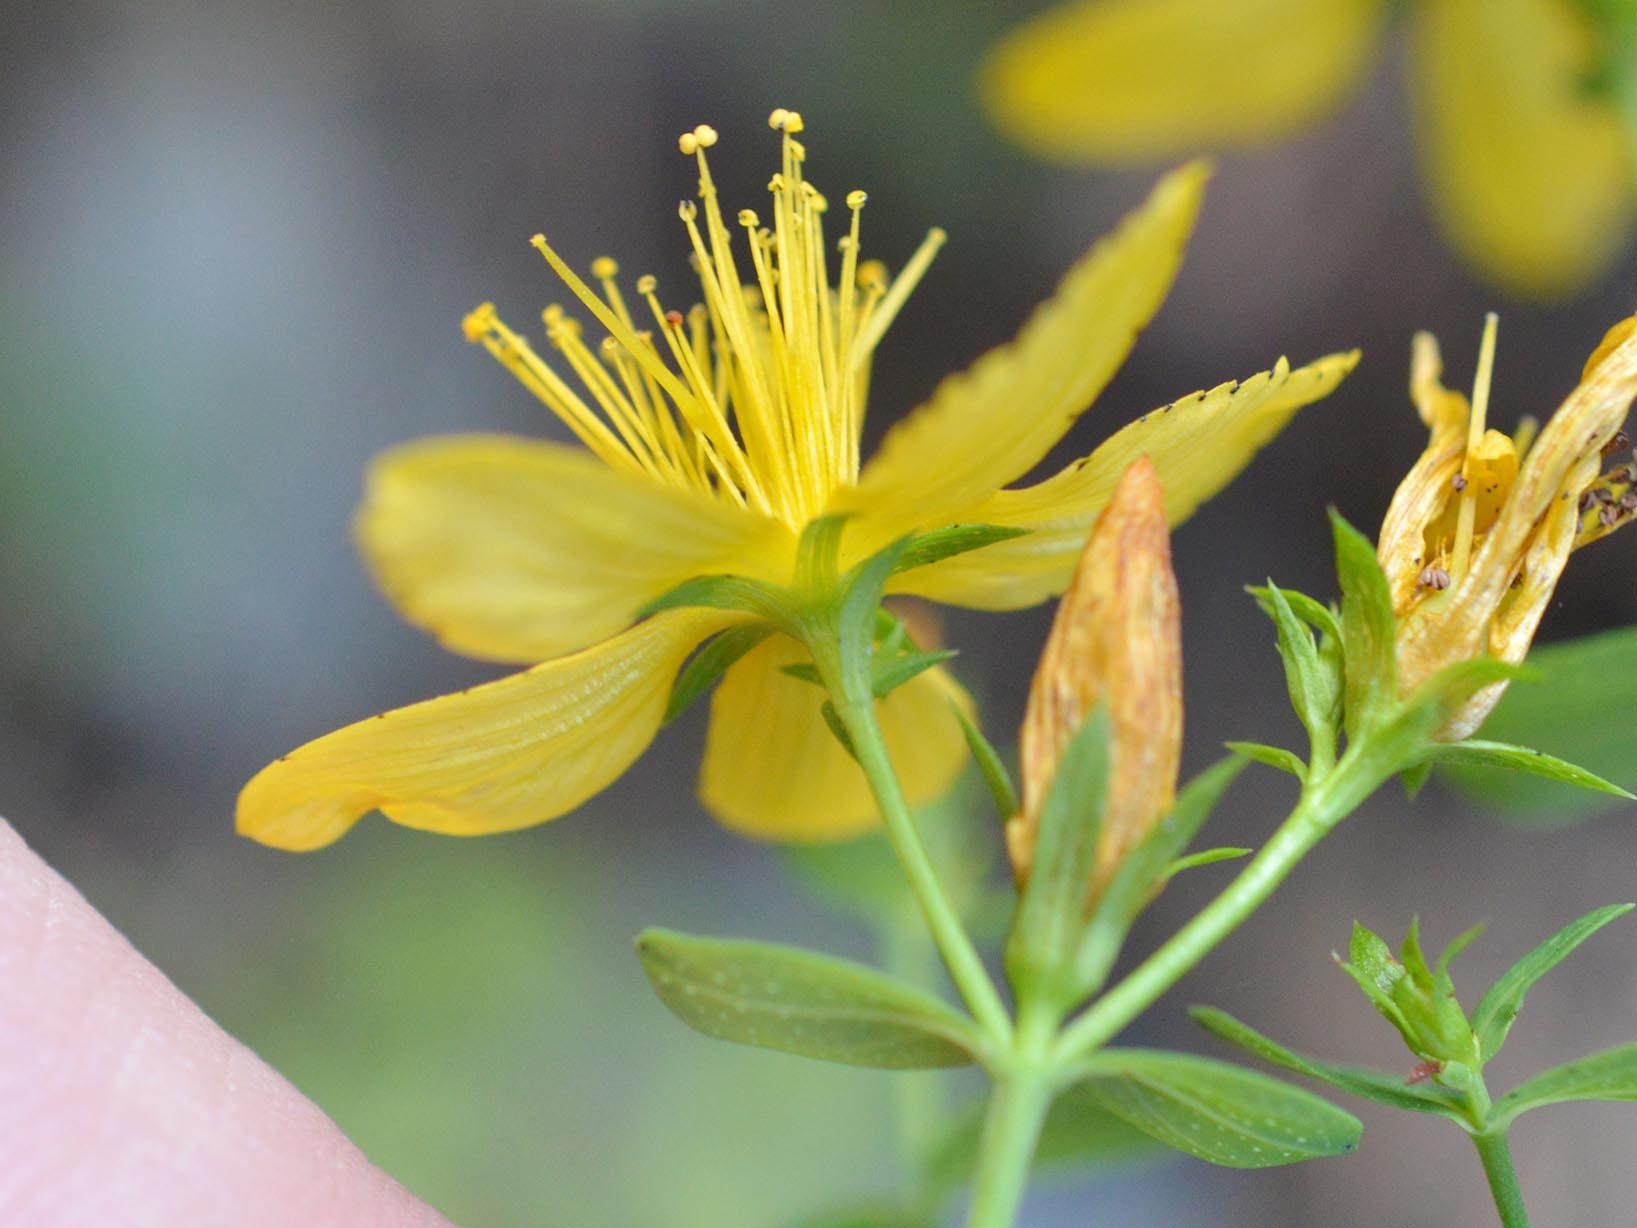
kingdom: Plantae
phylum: Tracheophyta
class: Magnoliopsida
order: Malpighiales
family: Hypericaceae
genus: Hypericum
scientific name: Hypericum perforatum
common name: Common st. johnswort
